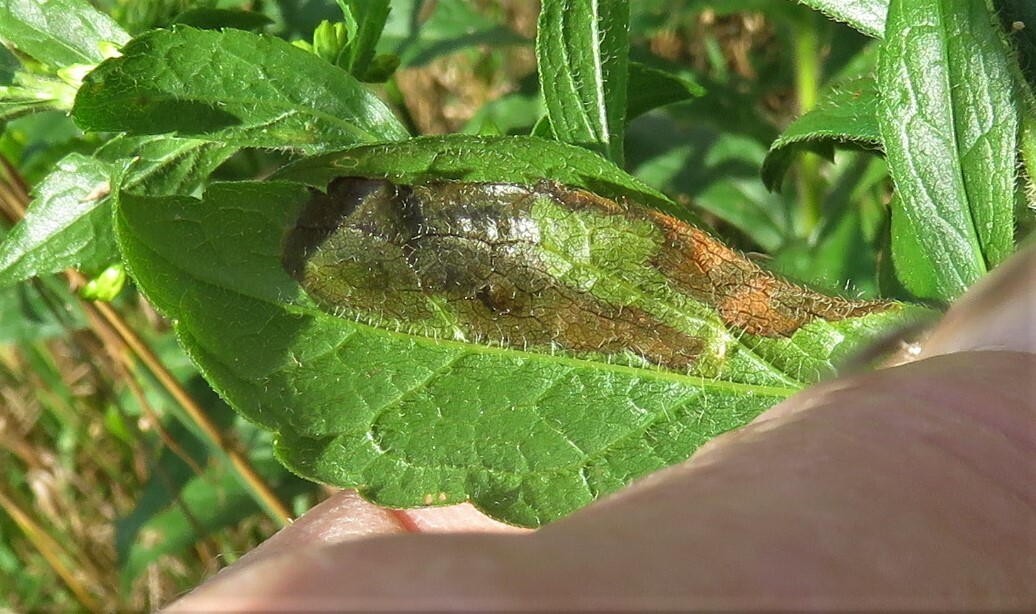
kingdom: Animalia
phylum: Arthropoda
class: Insecta
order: Diptera
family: Agromyzidae
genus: Nemorimyza
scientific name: Nemorimyza posticata
